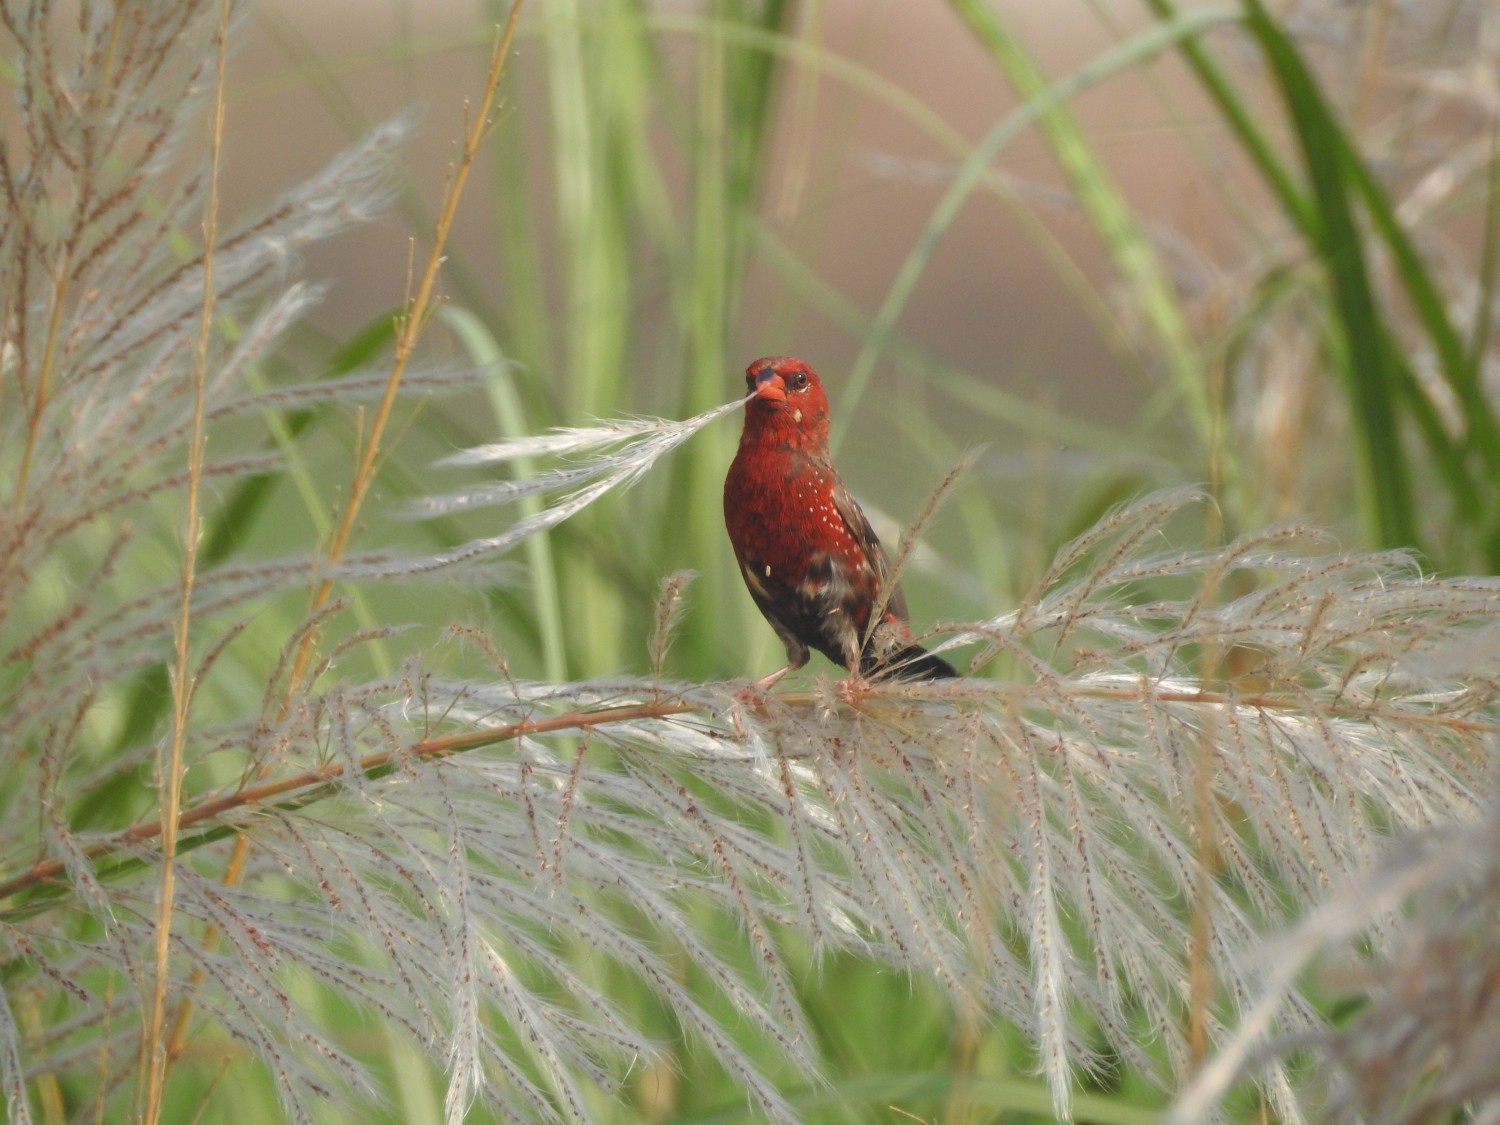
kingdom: Animalia
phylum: Chordata
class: Aves
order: Passeriformes
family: Estrildidae
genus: Amandava
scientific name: Amandava amandava
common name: Red avadavat
